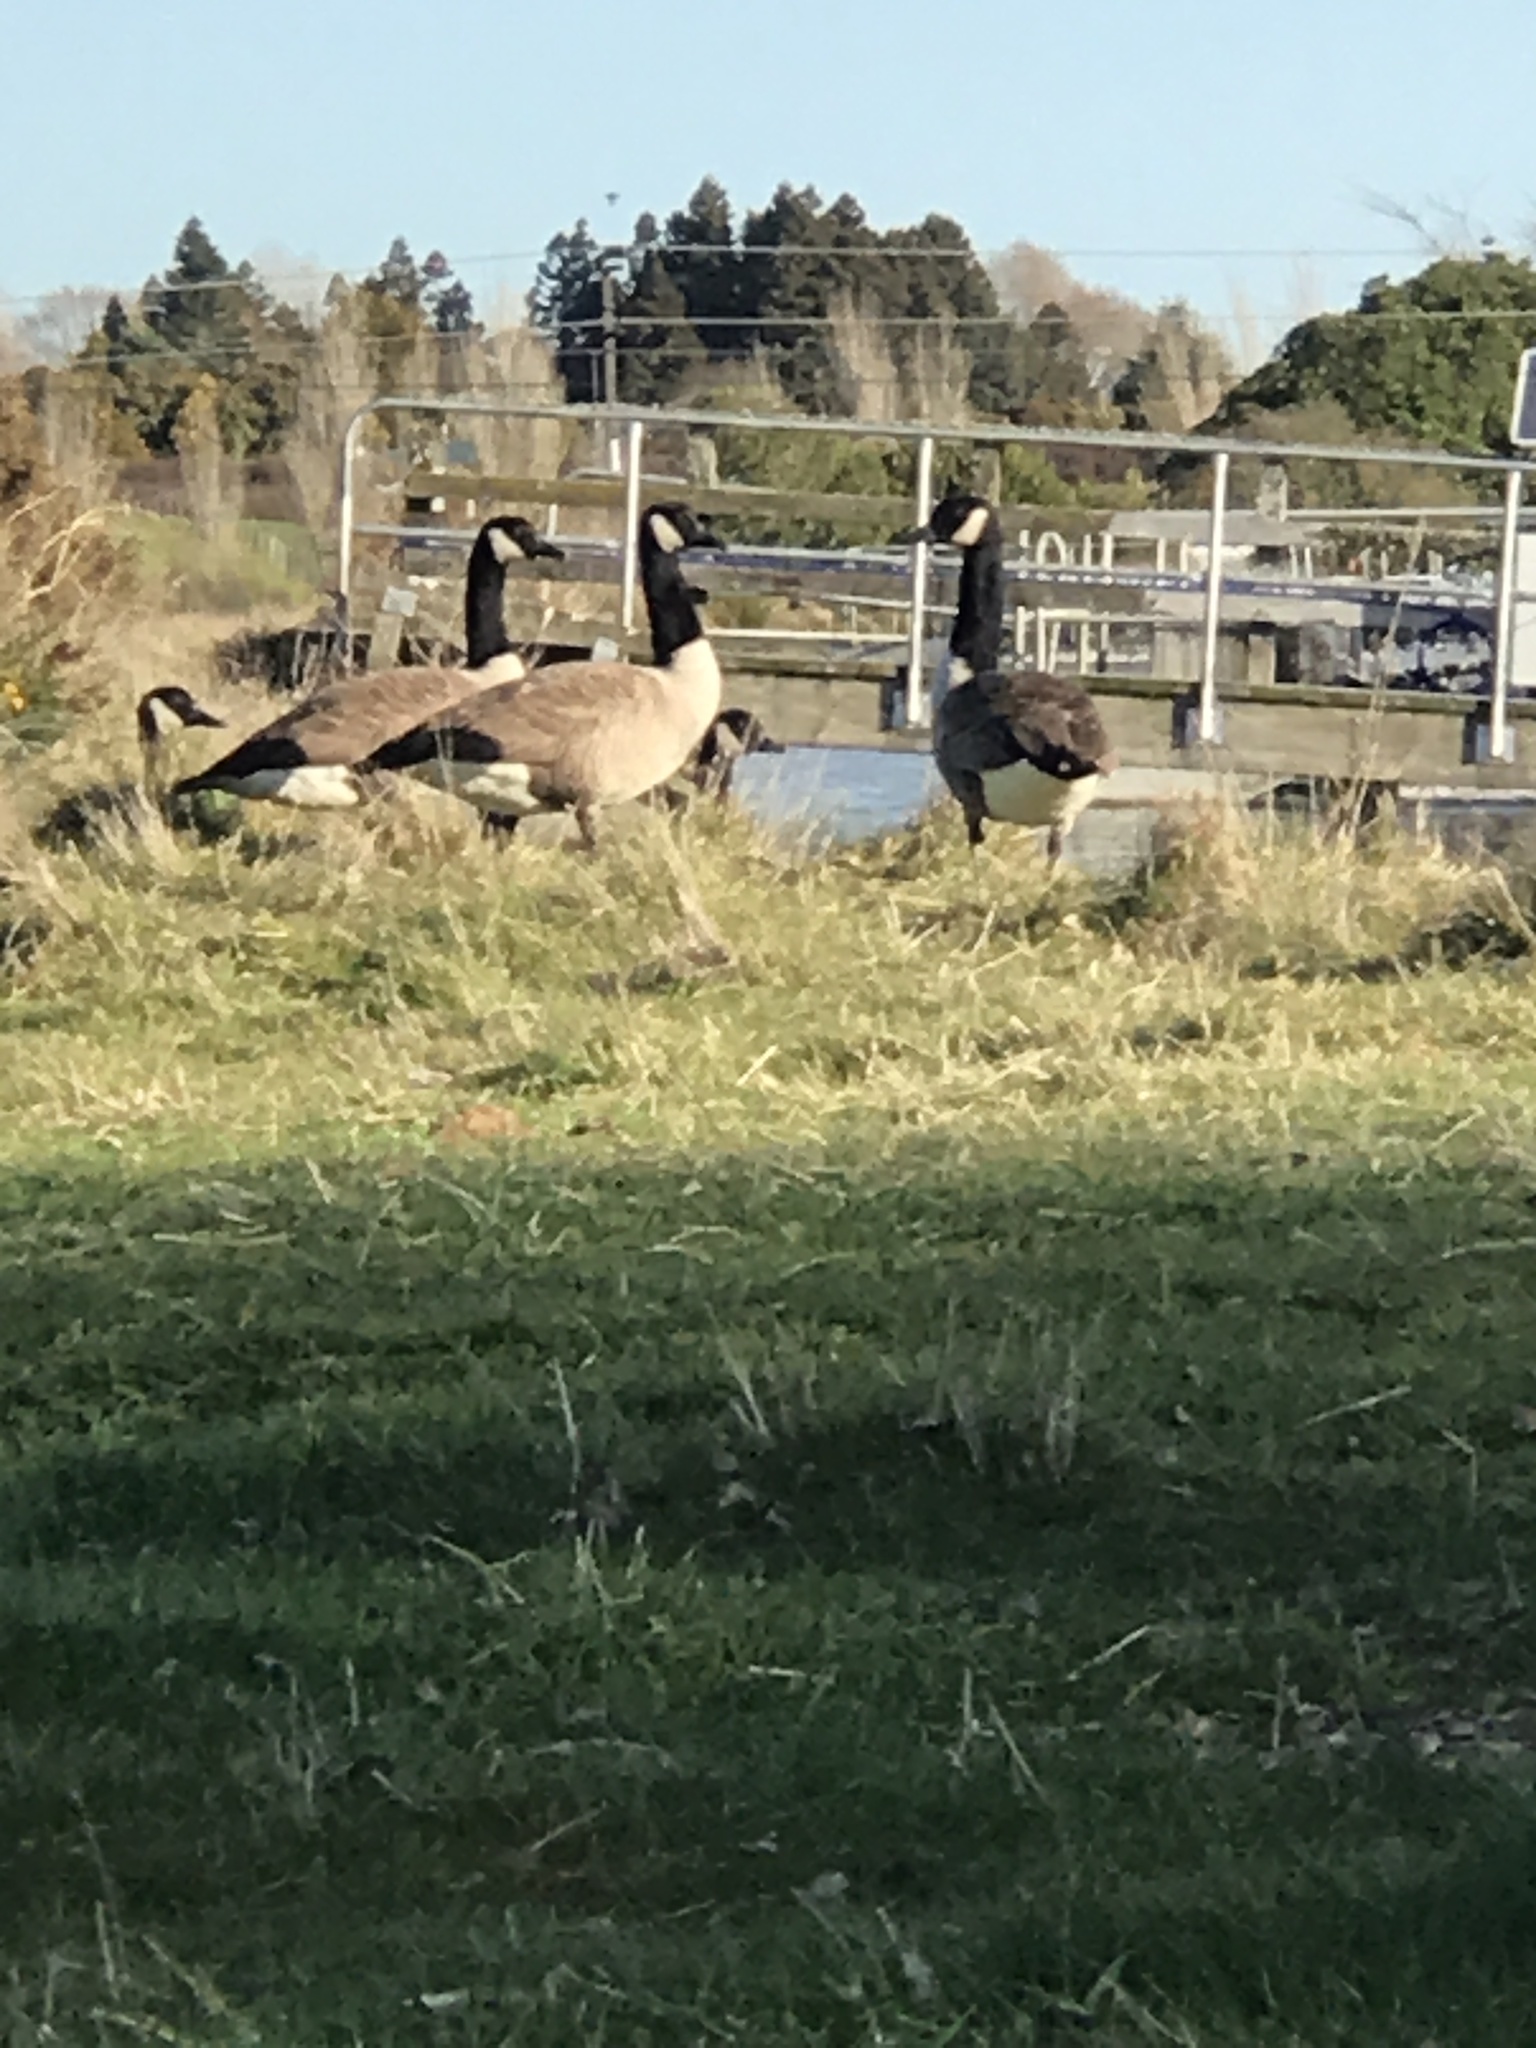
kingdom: Animalia
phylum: Chordata
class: Aves
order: Anseriformes
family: Anatidae
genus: Branta
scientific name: Branta canadensis
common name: Canada goose
